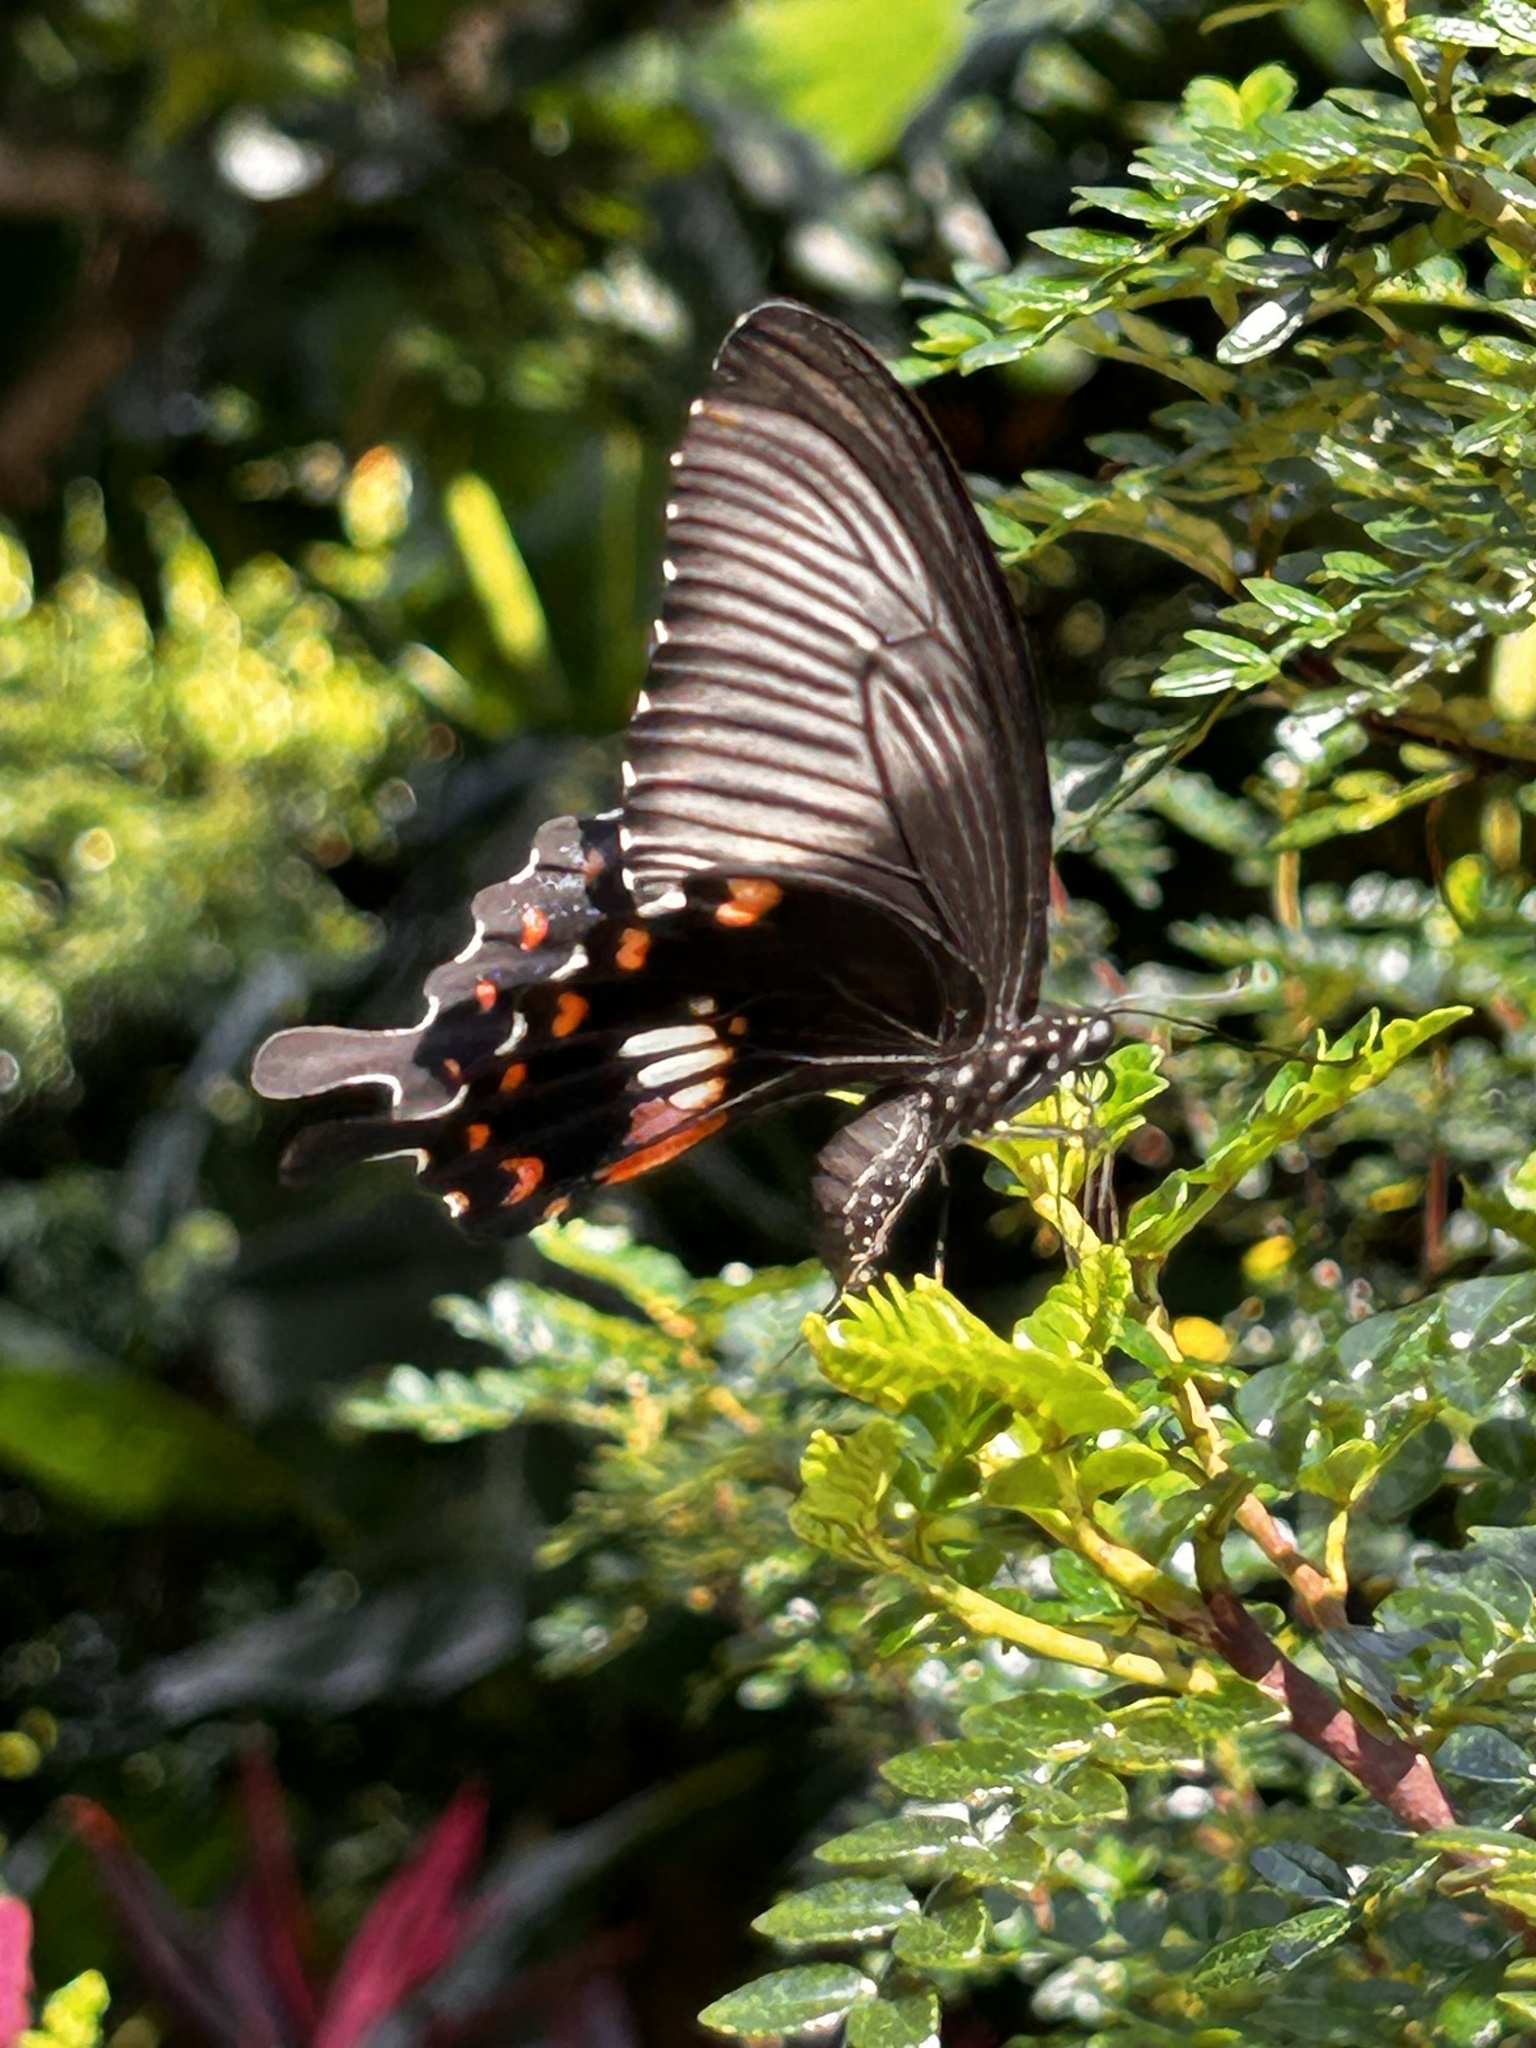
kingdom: Animalia
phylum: Arthropoda
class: Insecta
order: Lepidoptera
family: Papilionidae
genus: Papilio
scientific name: Papilio polytes
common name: Common mormon
